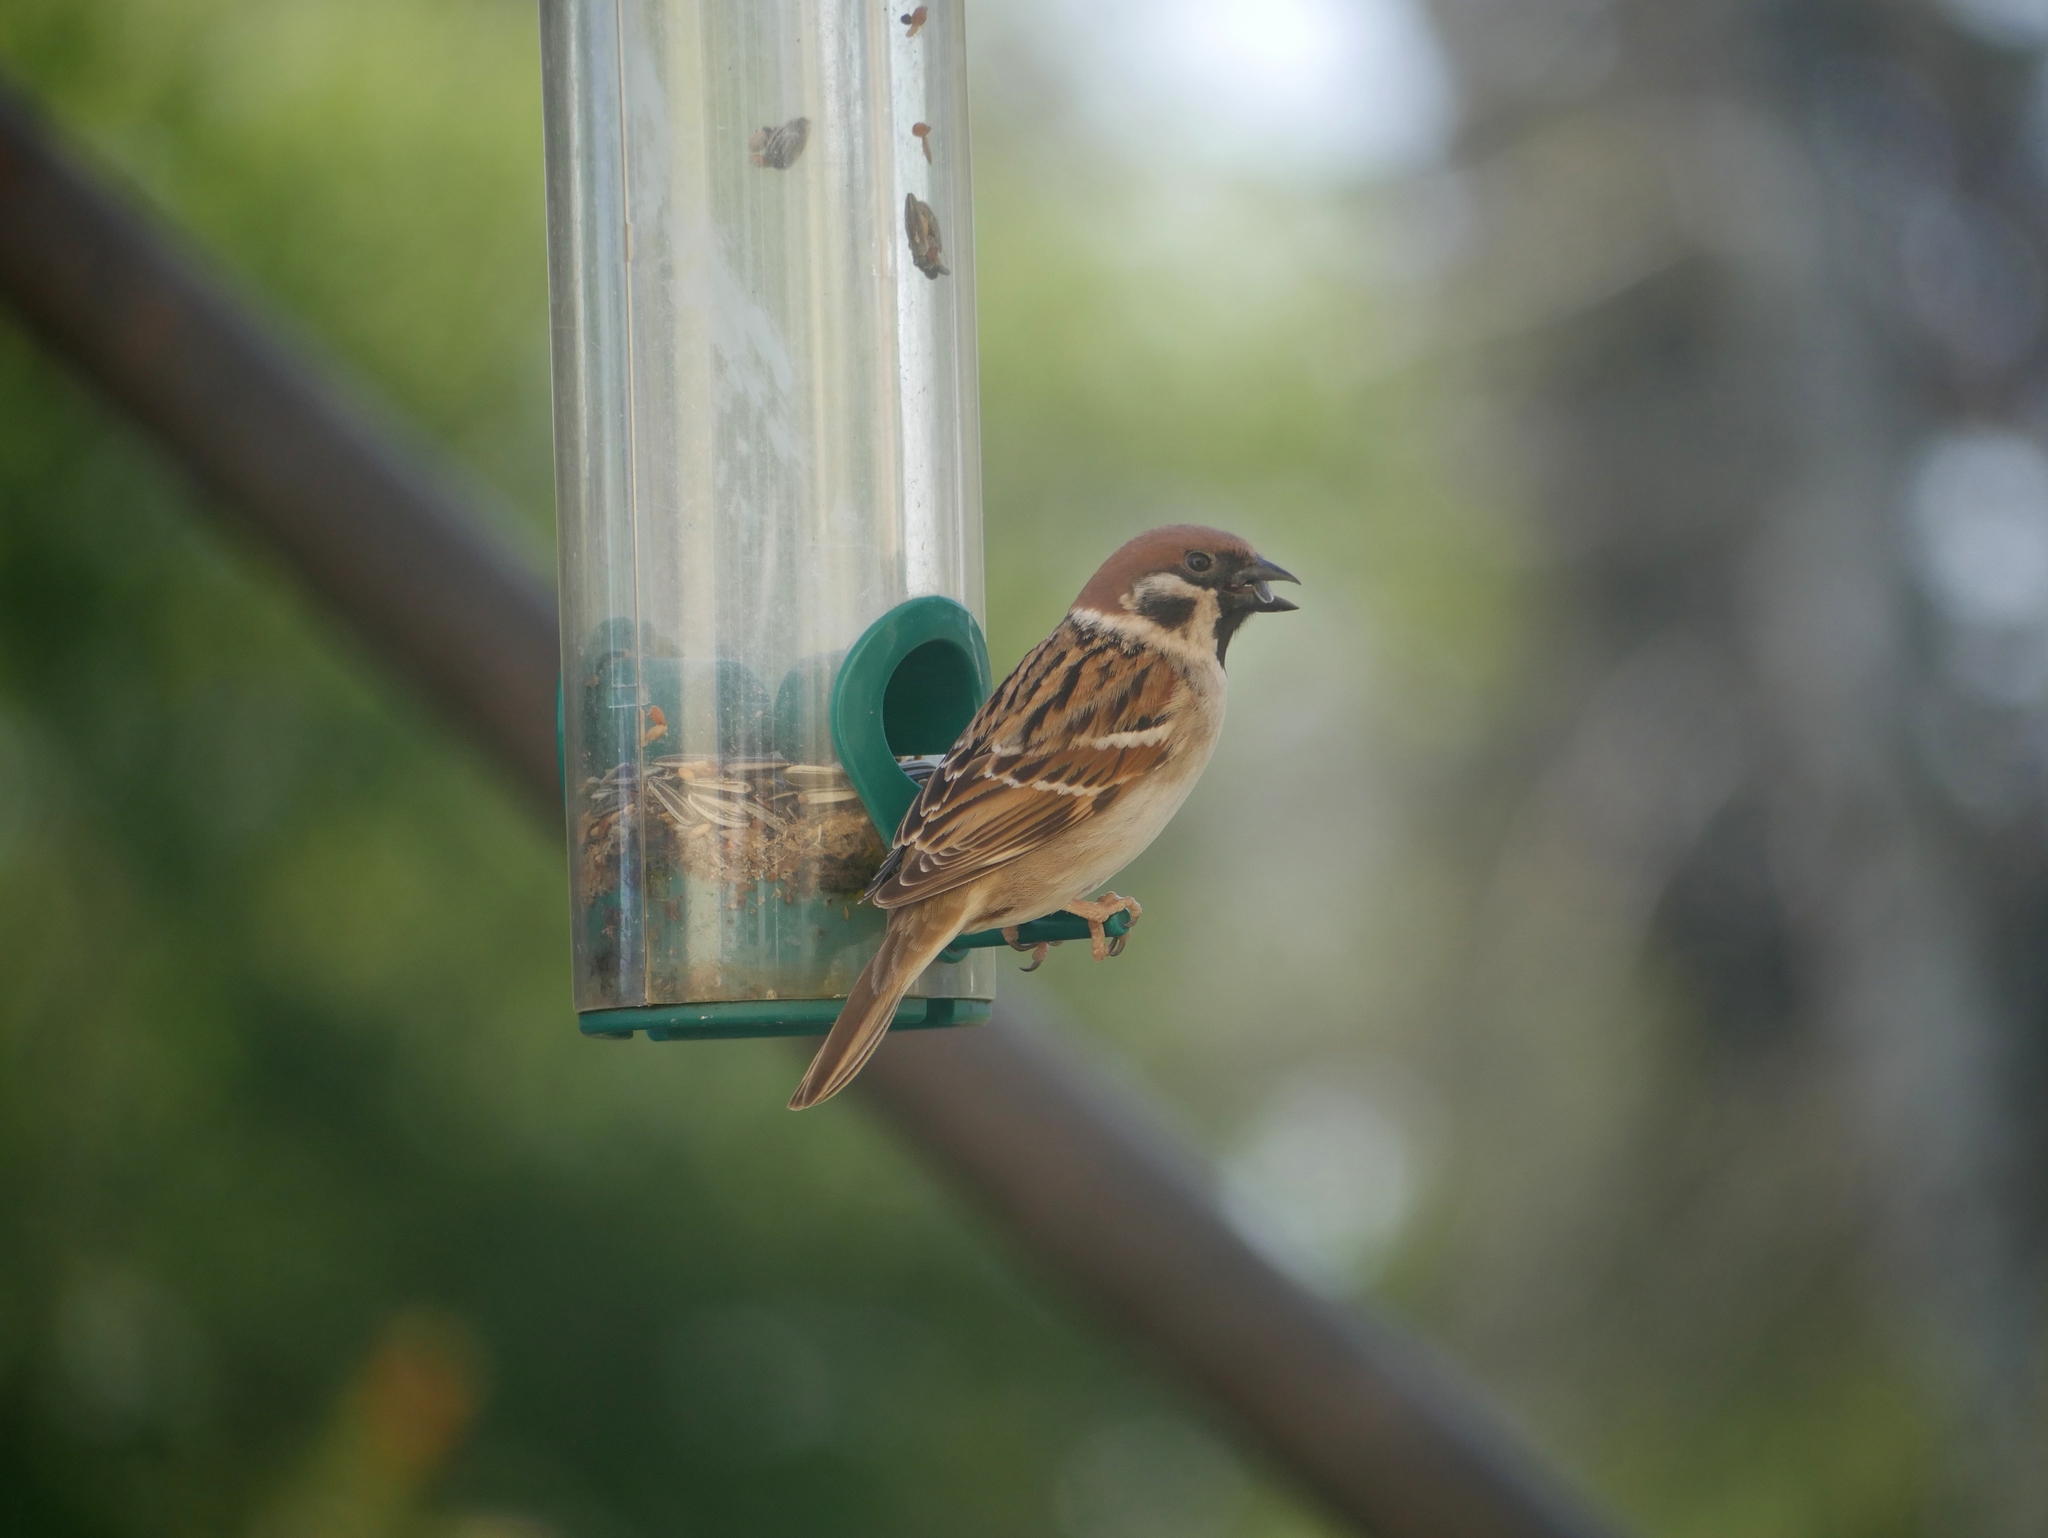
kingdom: Animalia
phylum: Chordata
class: Aves
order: Passeriformes
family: Passeridae
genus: Passer
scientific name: Passer montanus
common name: Eurasian tree sparrow
